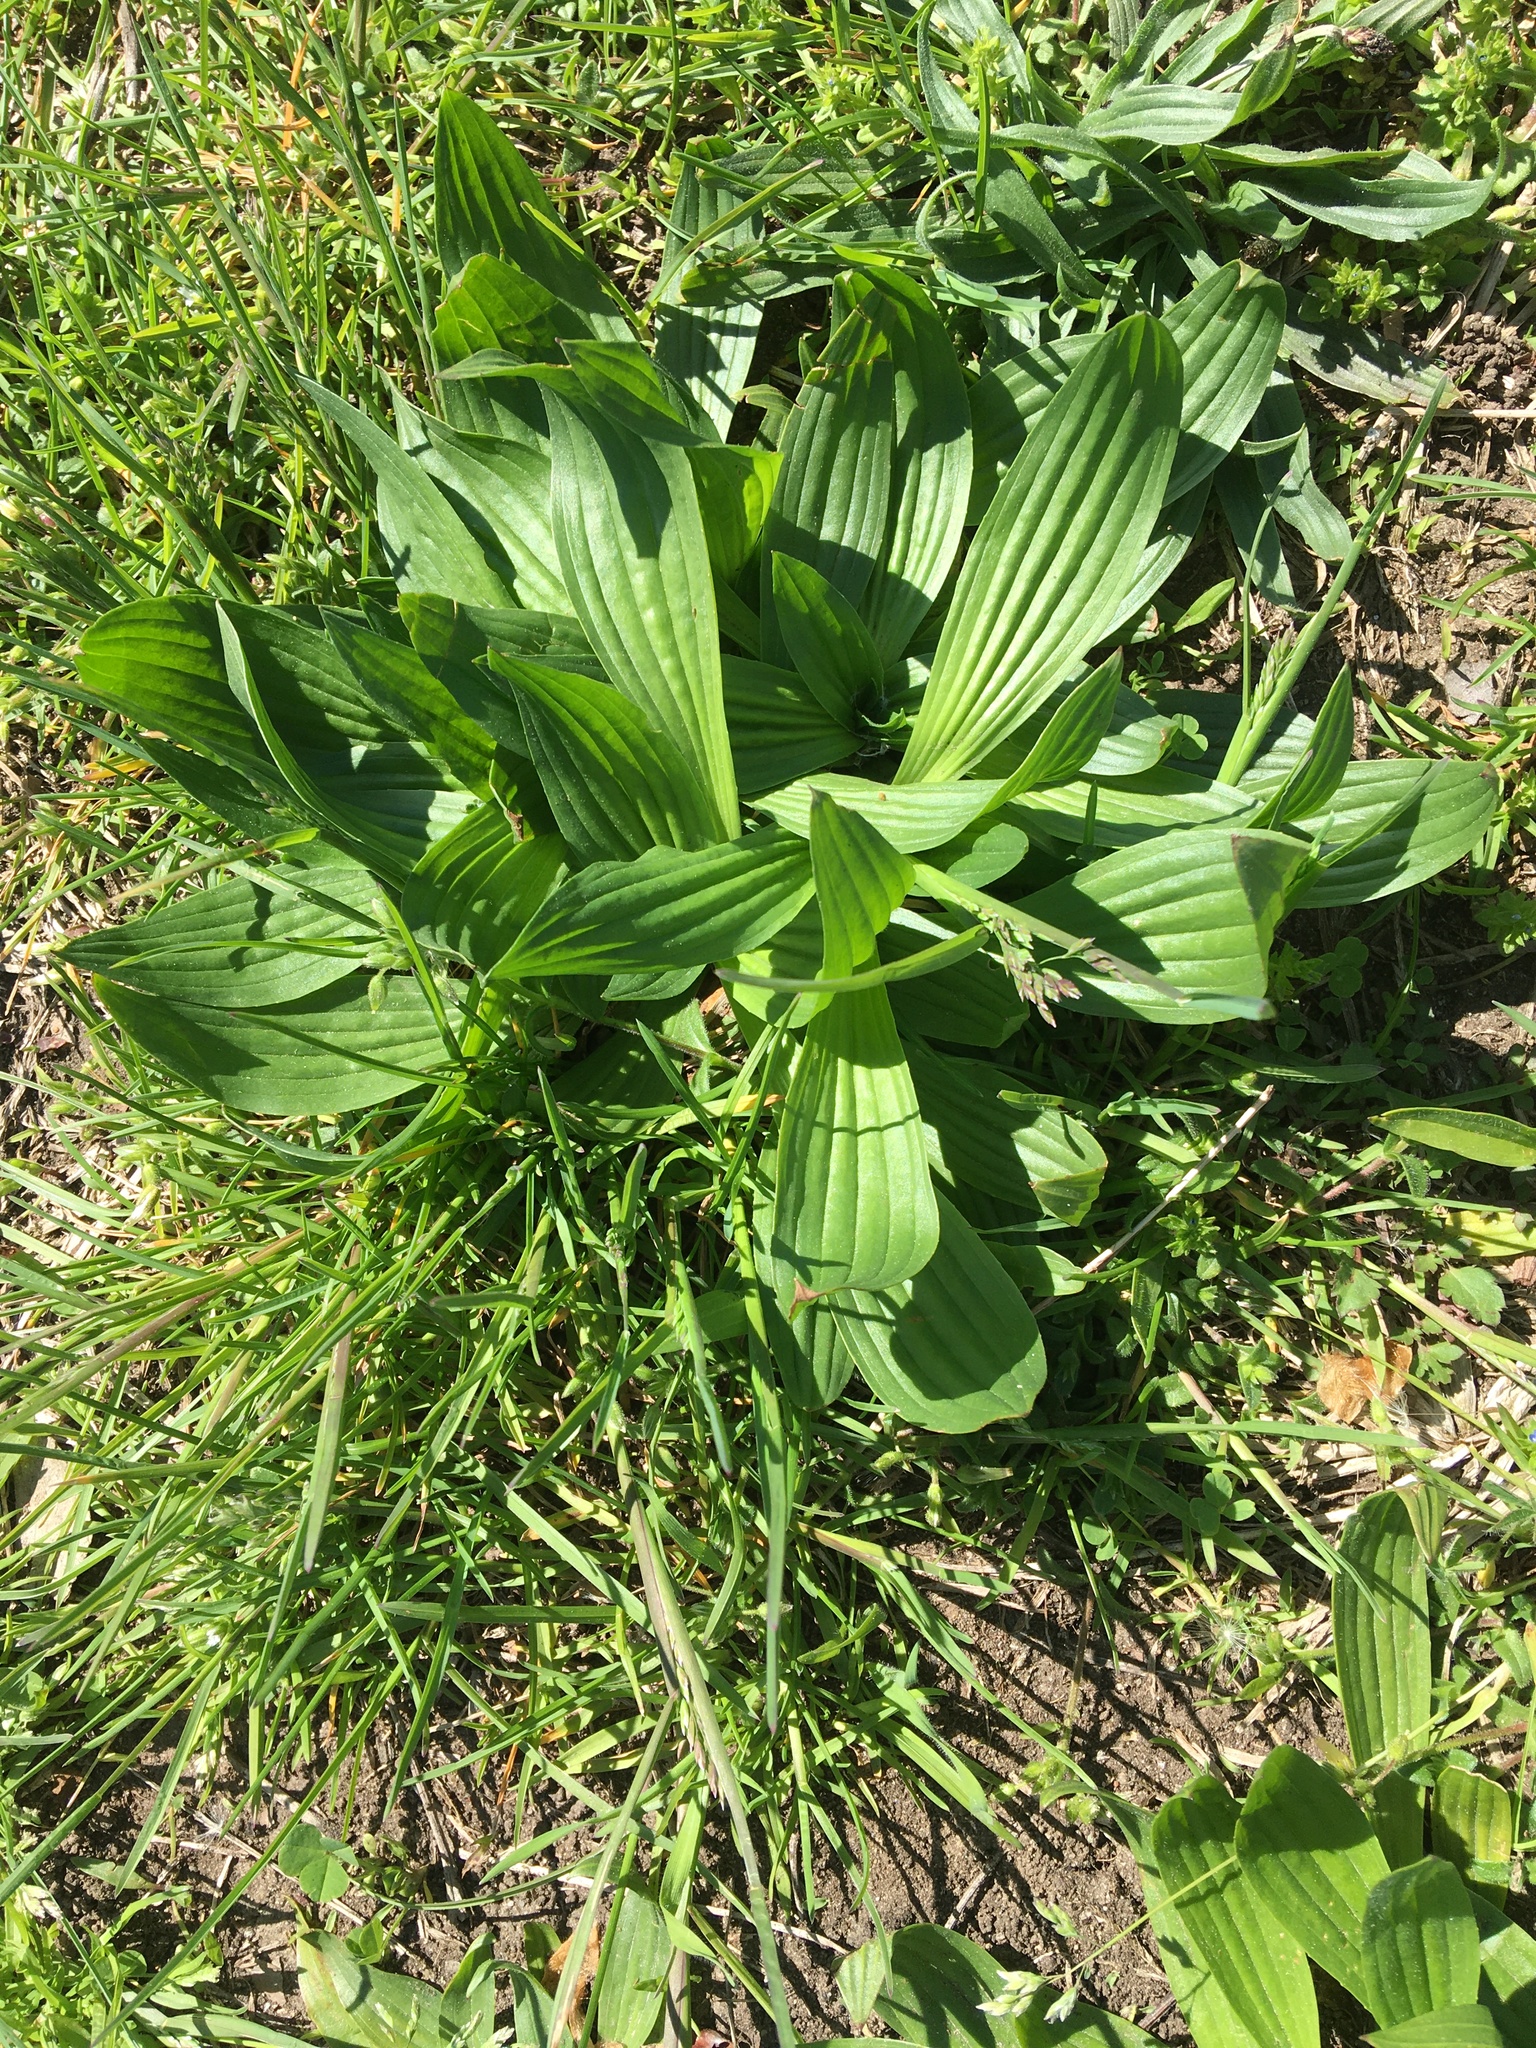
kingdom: Plantae
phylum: Tracheophyta
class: Magnoliopsida
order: Lamiales
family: Plantaginaceae
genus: Plantago
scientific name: Plantago lanceolata
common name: Ribwort plantain
